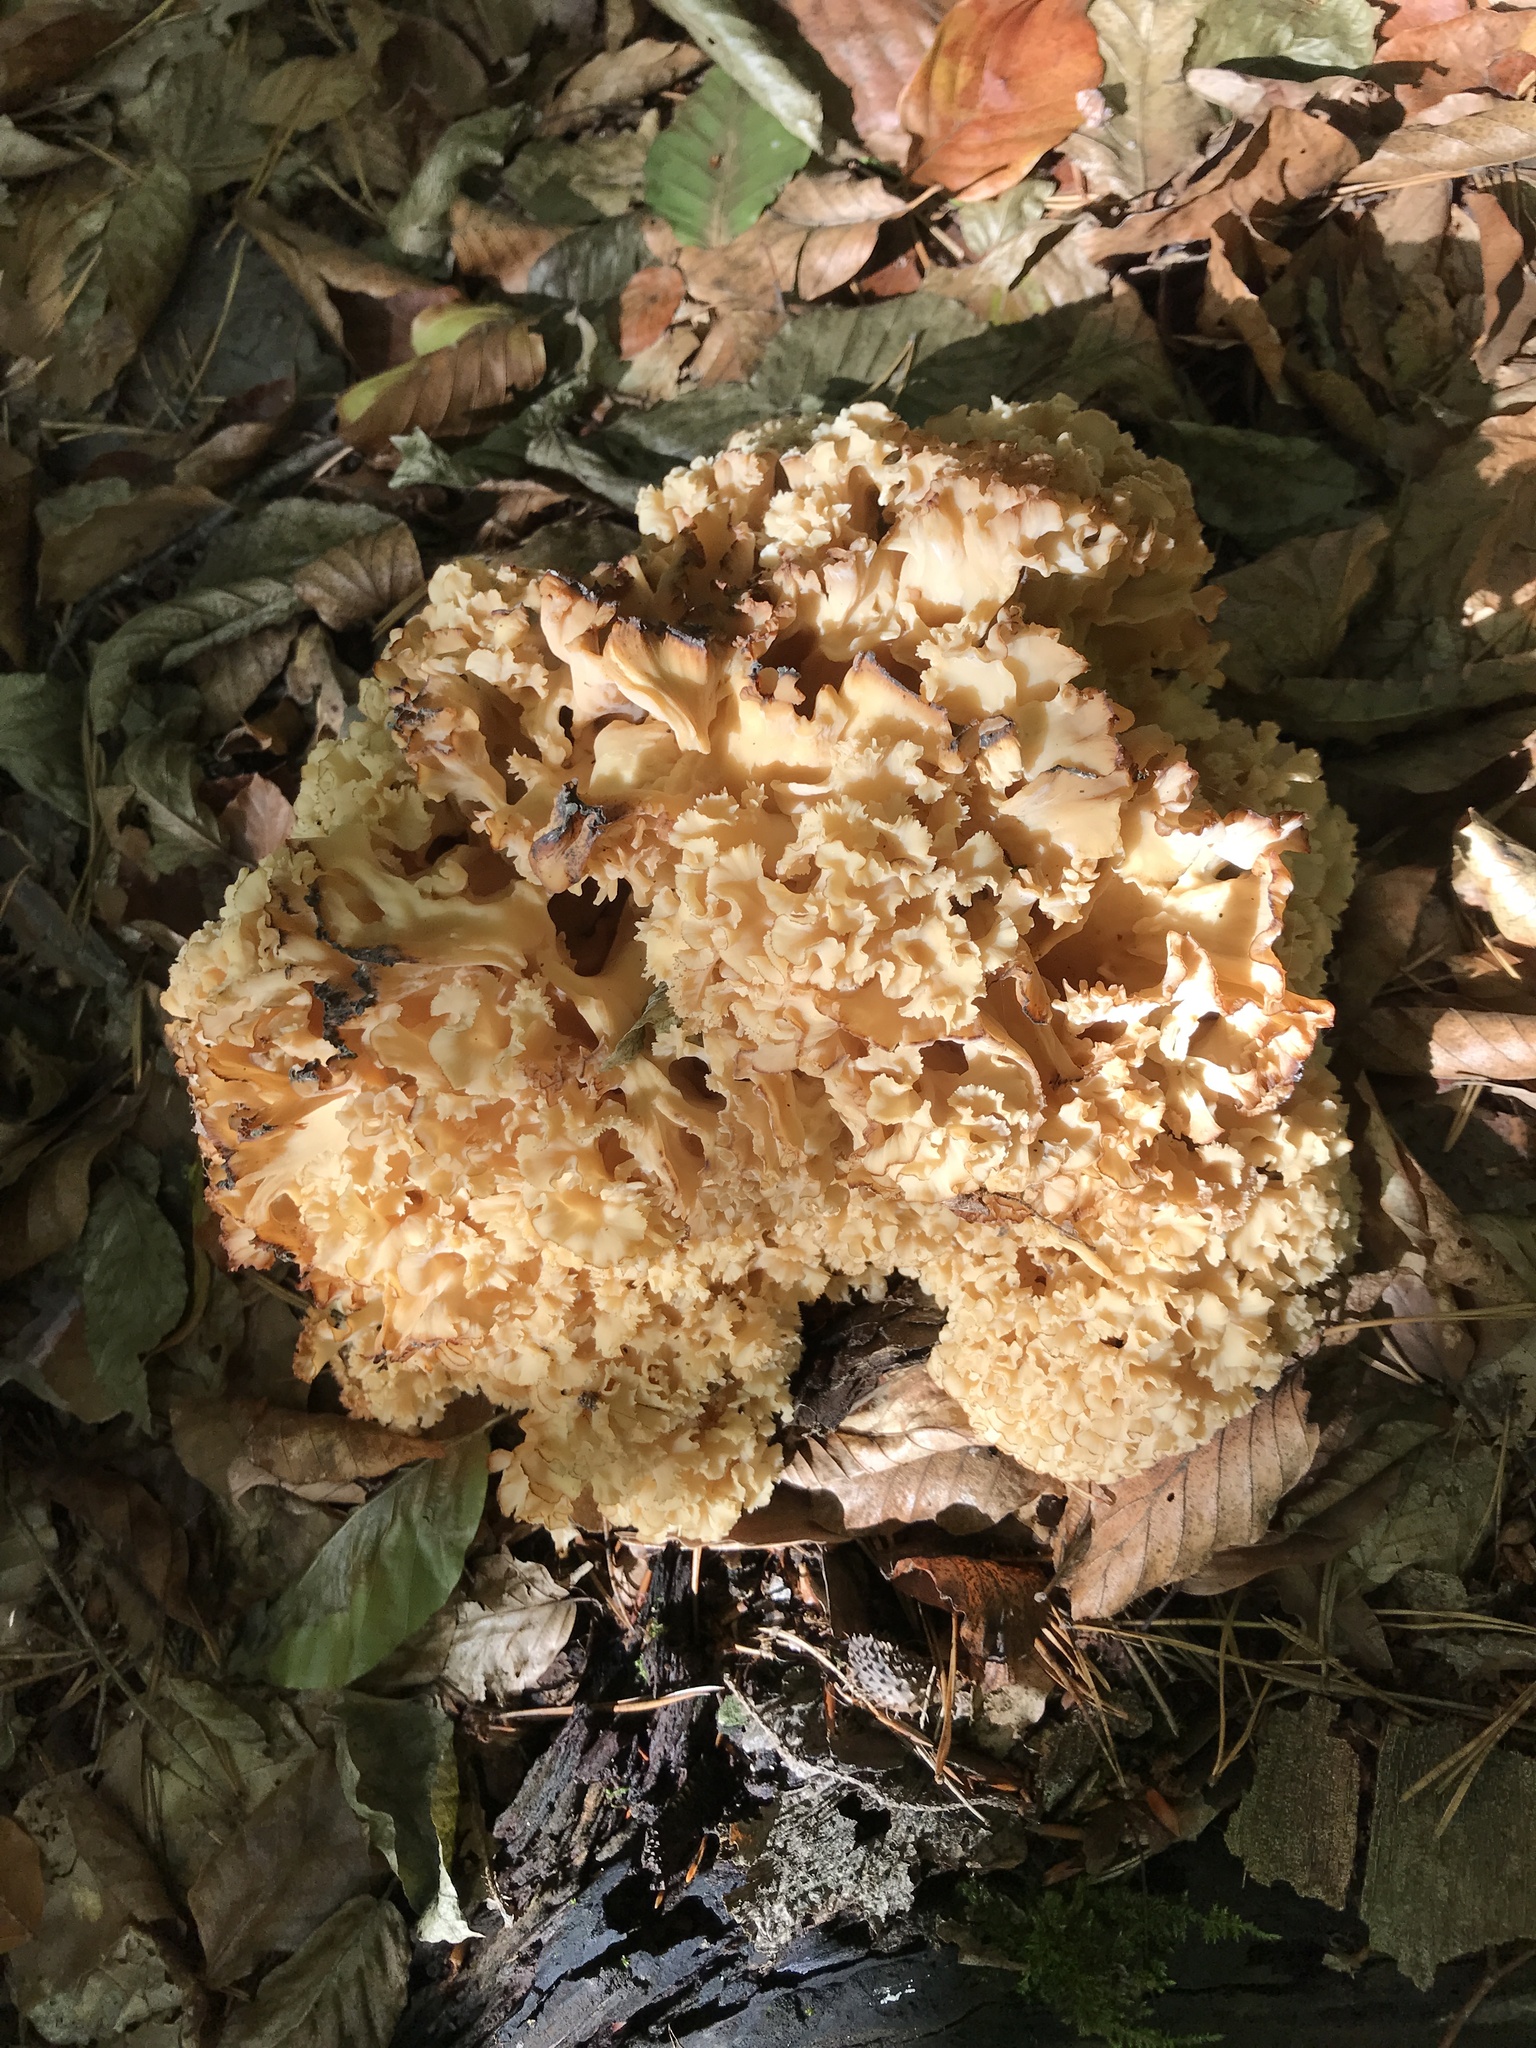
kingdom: Fungi
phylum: Basidiomycota
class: Agaricomycetes
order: Polyporales
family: Sparassidaceae
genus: Sparassis
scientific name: Sparassis crispa
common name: Brain fungus
